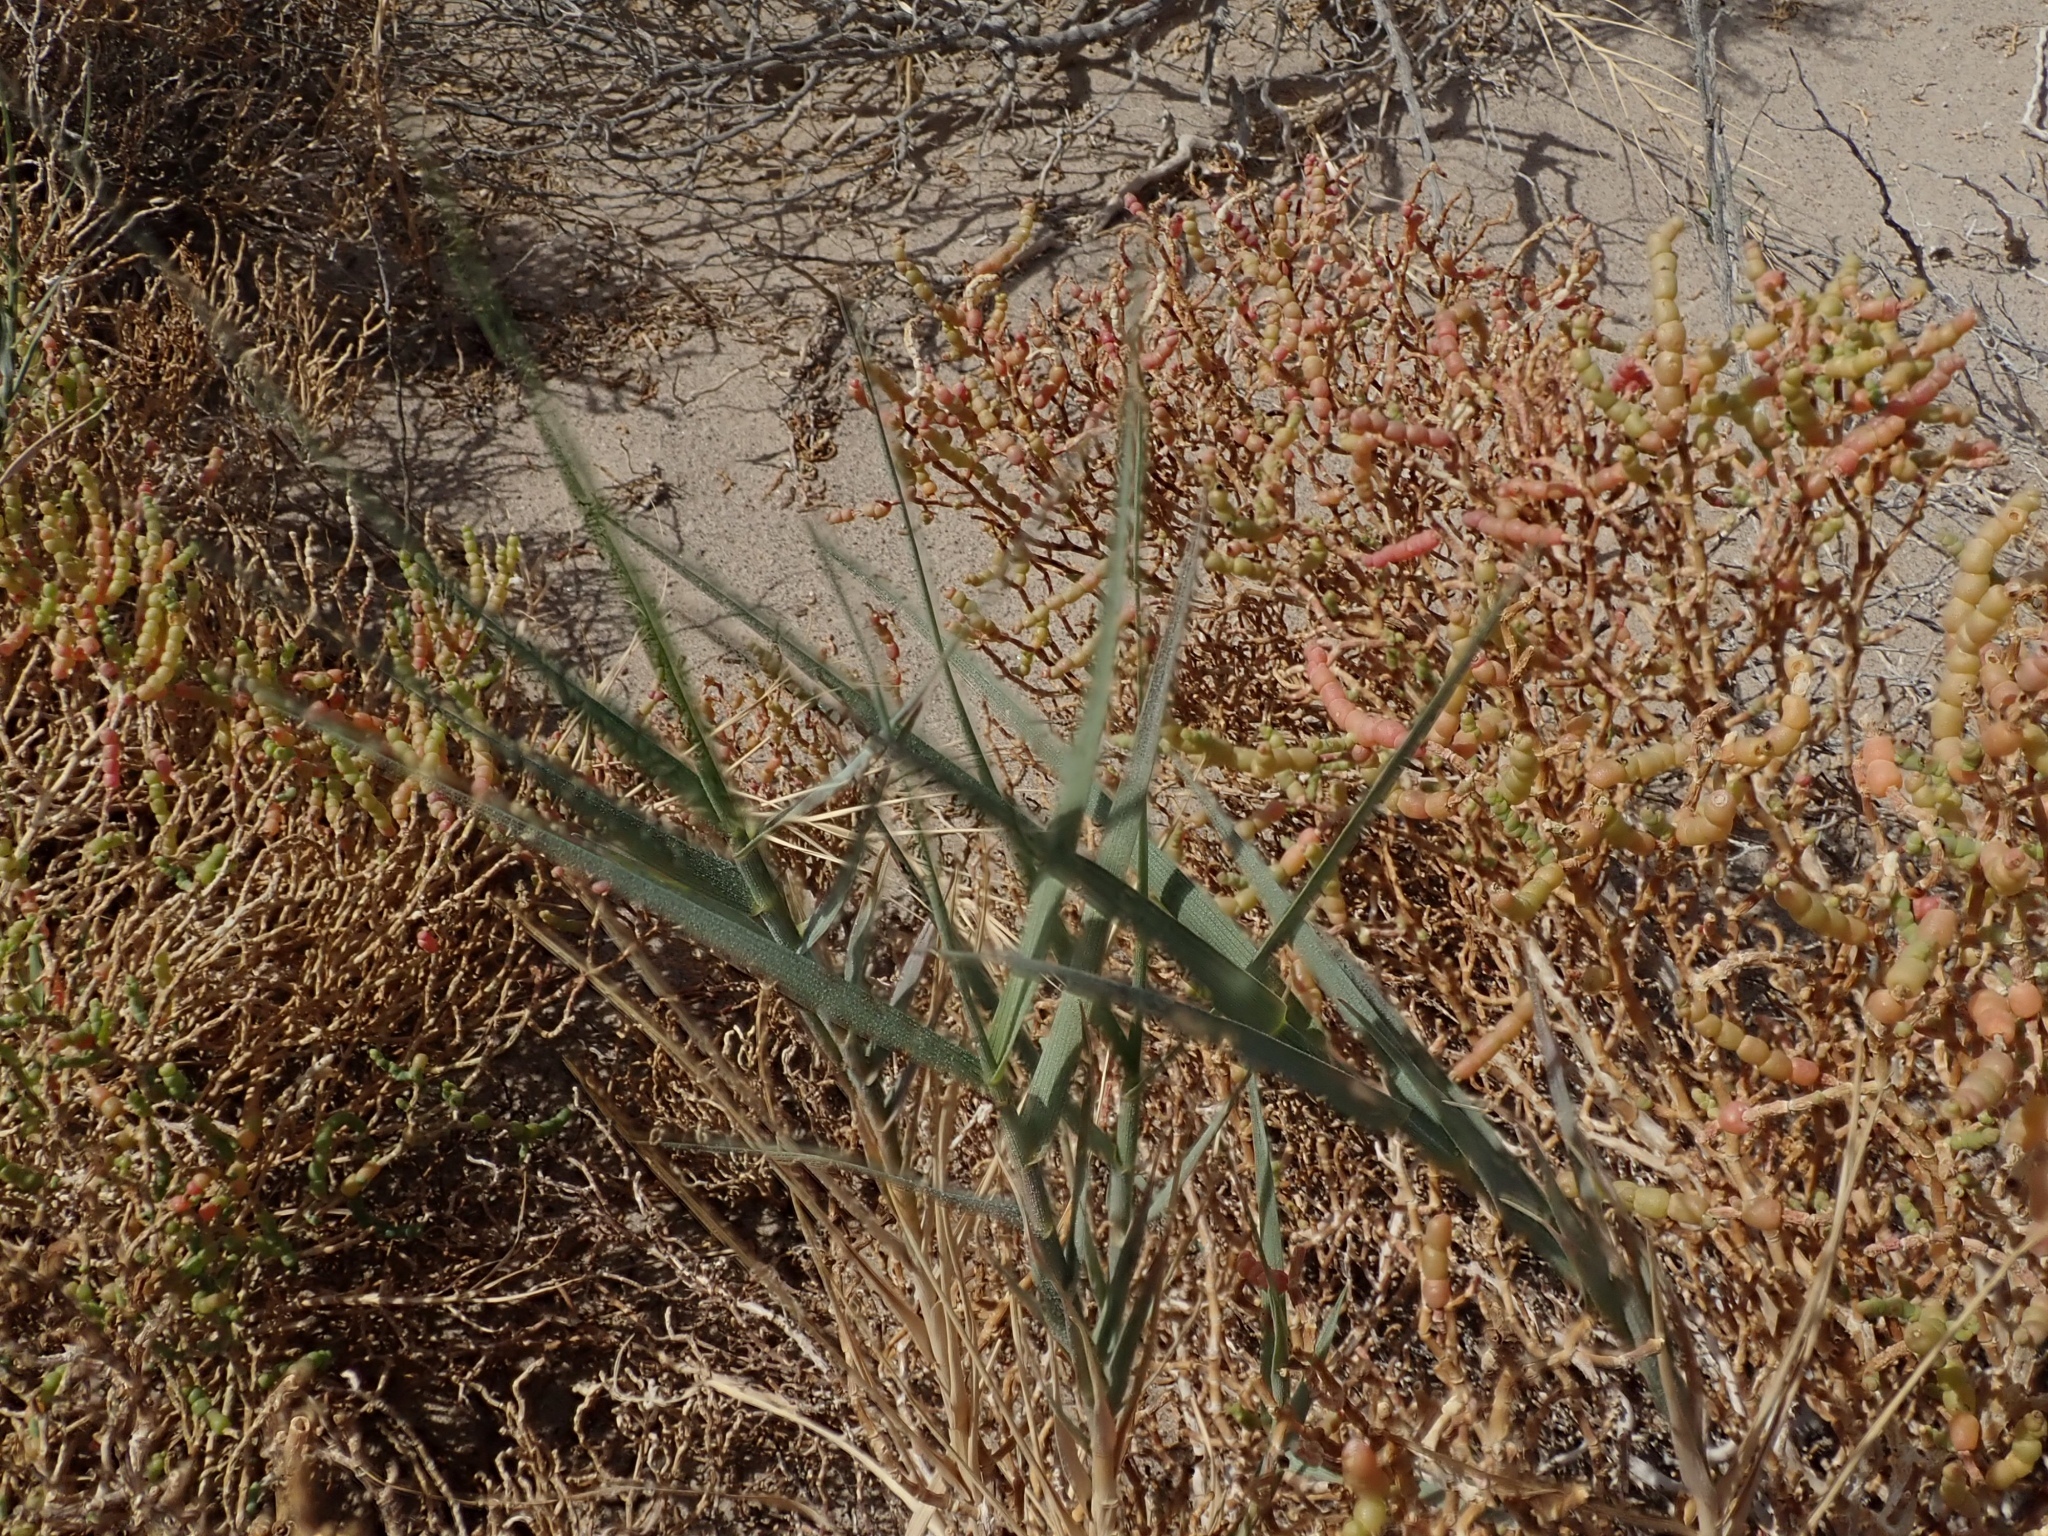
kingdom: Plantae
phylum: Tracheophyta
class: Liliopsida
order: Poales
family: Poaceae
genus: Distichlis
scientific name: Distichlis spicata
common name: Saltgrass
